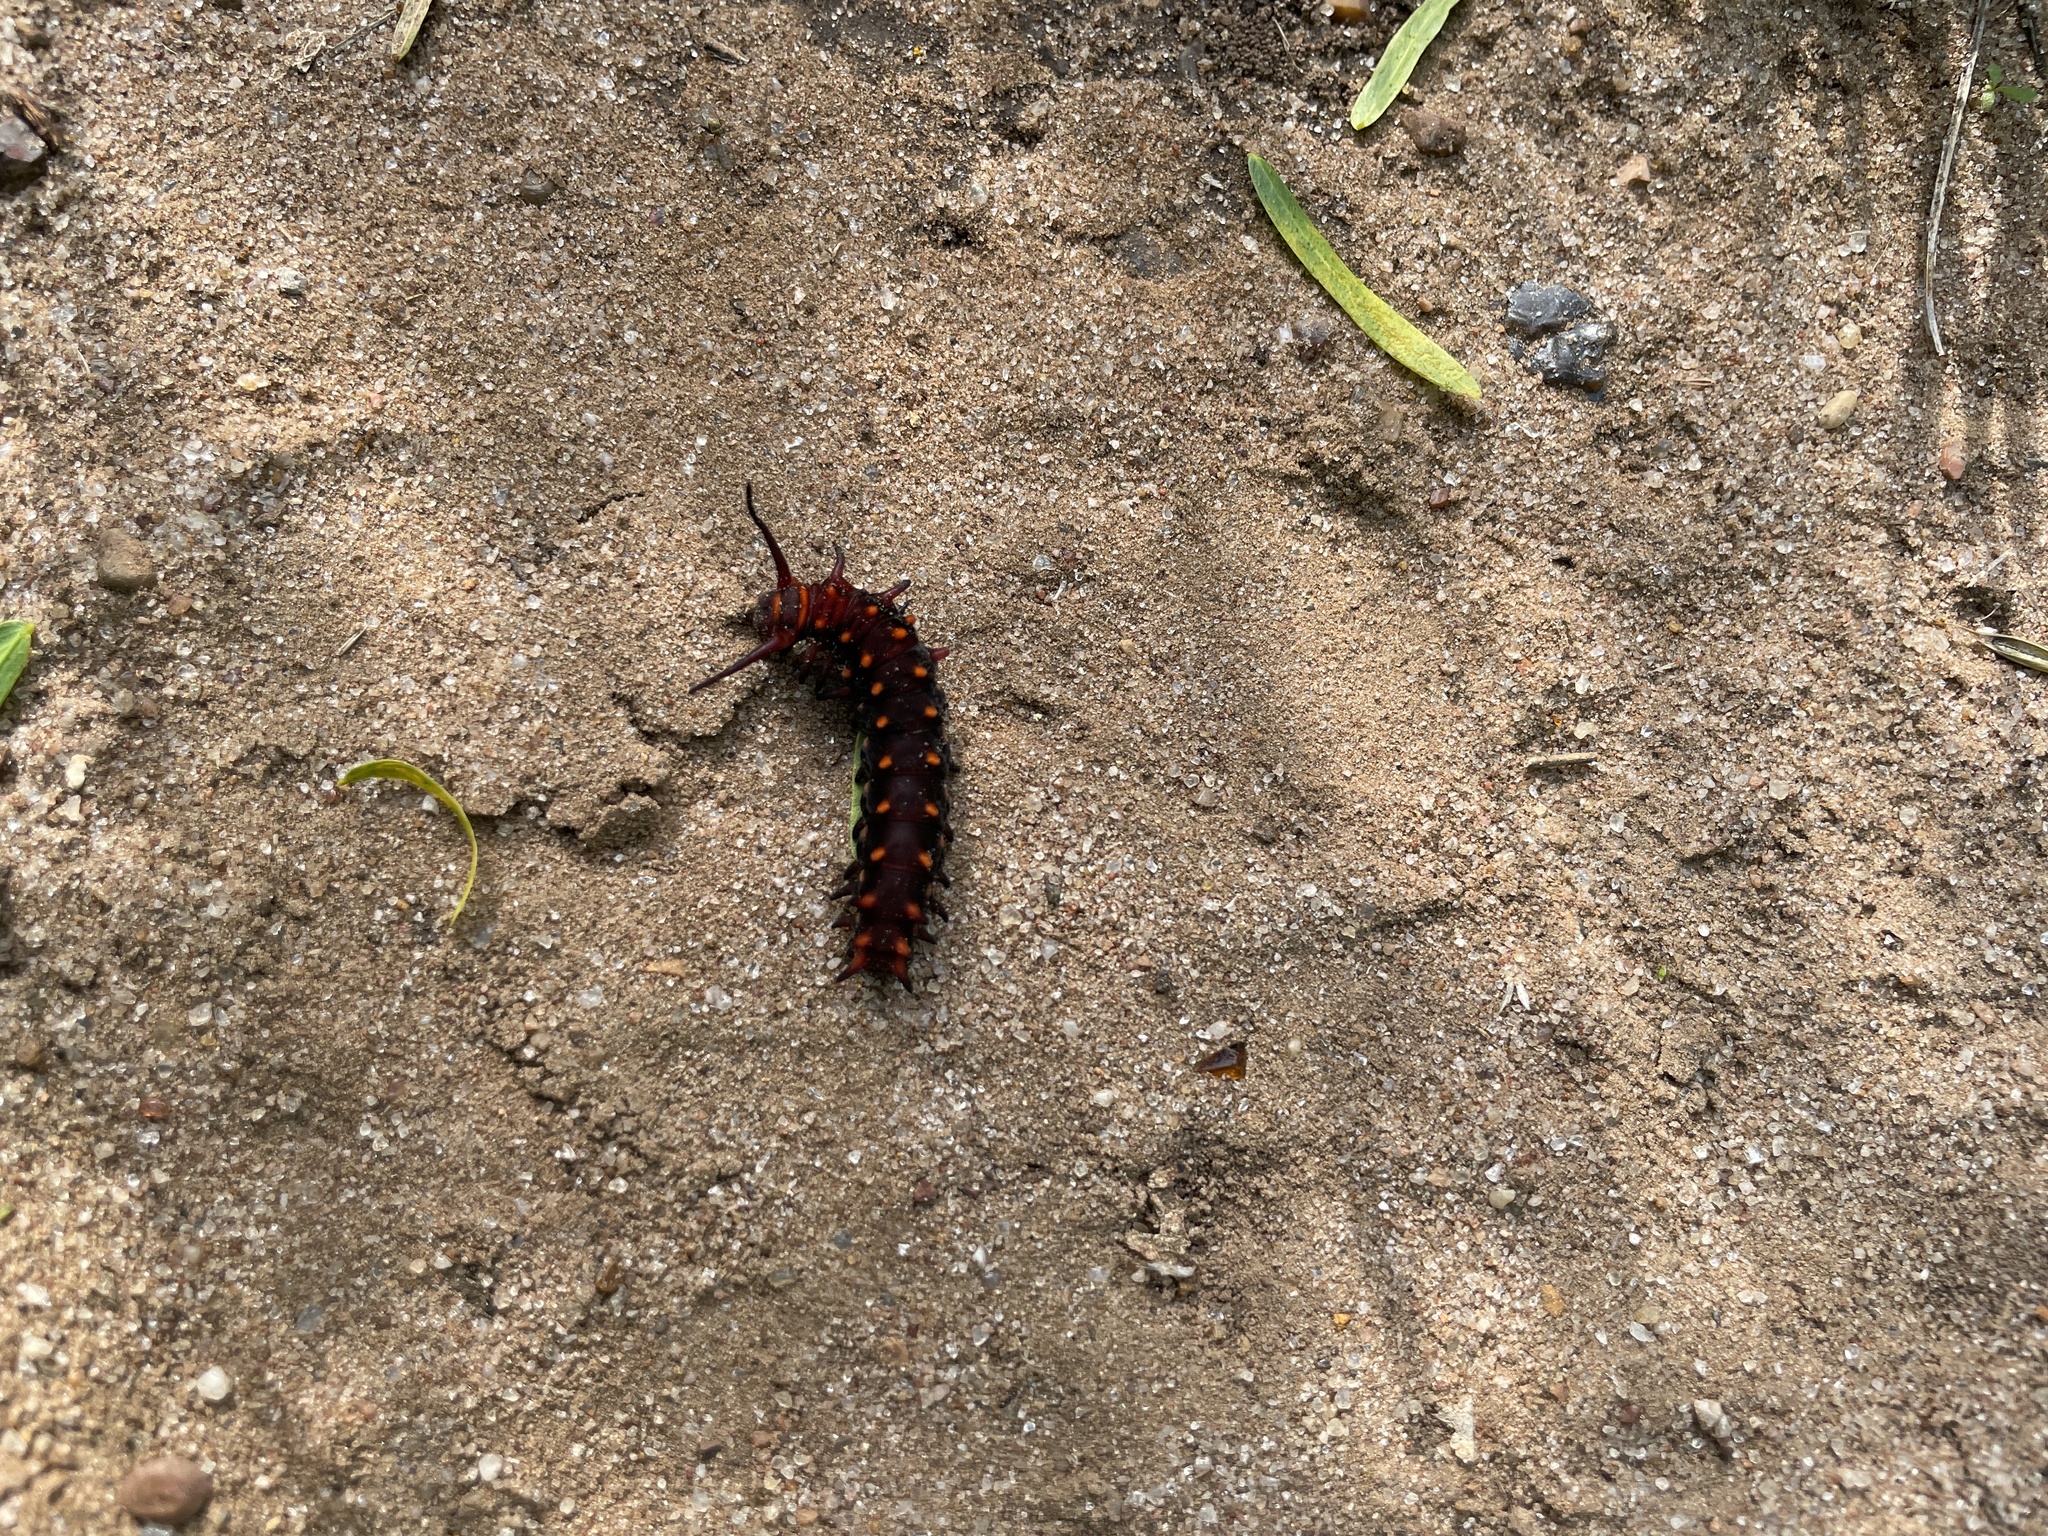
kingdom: Animalia
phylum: Arthropoda
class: Insecta
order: Lepidoptera
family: Papilionidae
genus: Battus
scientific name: Battus philenor
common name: Pipevine swallowtail
